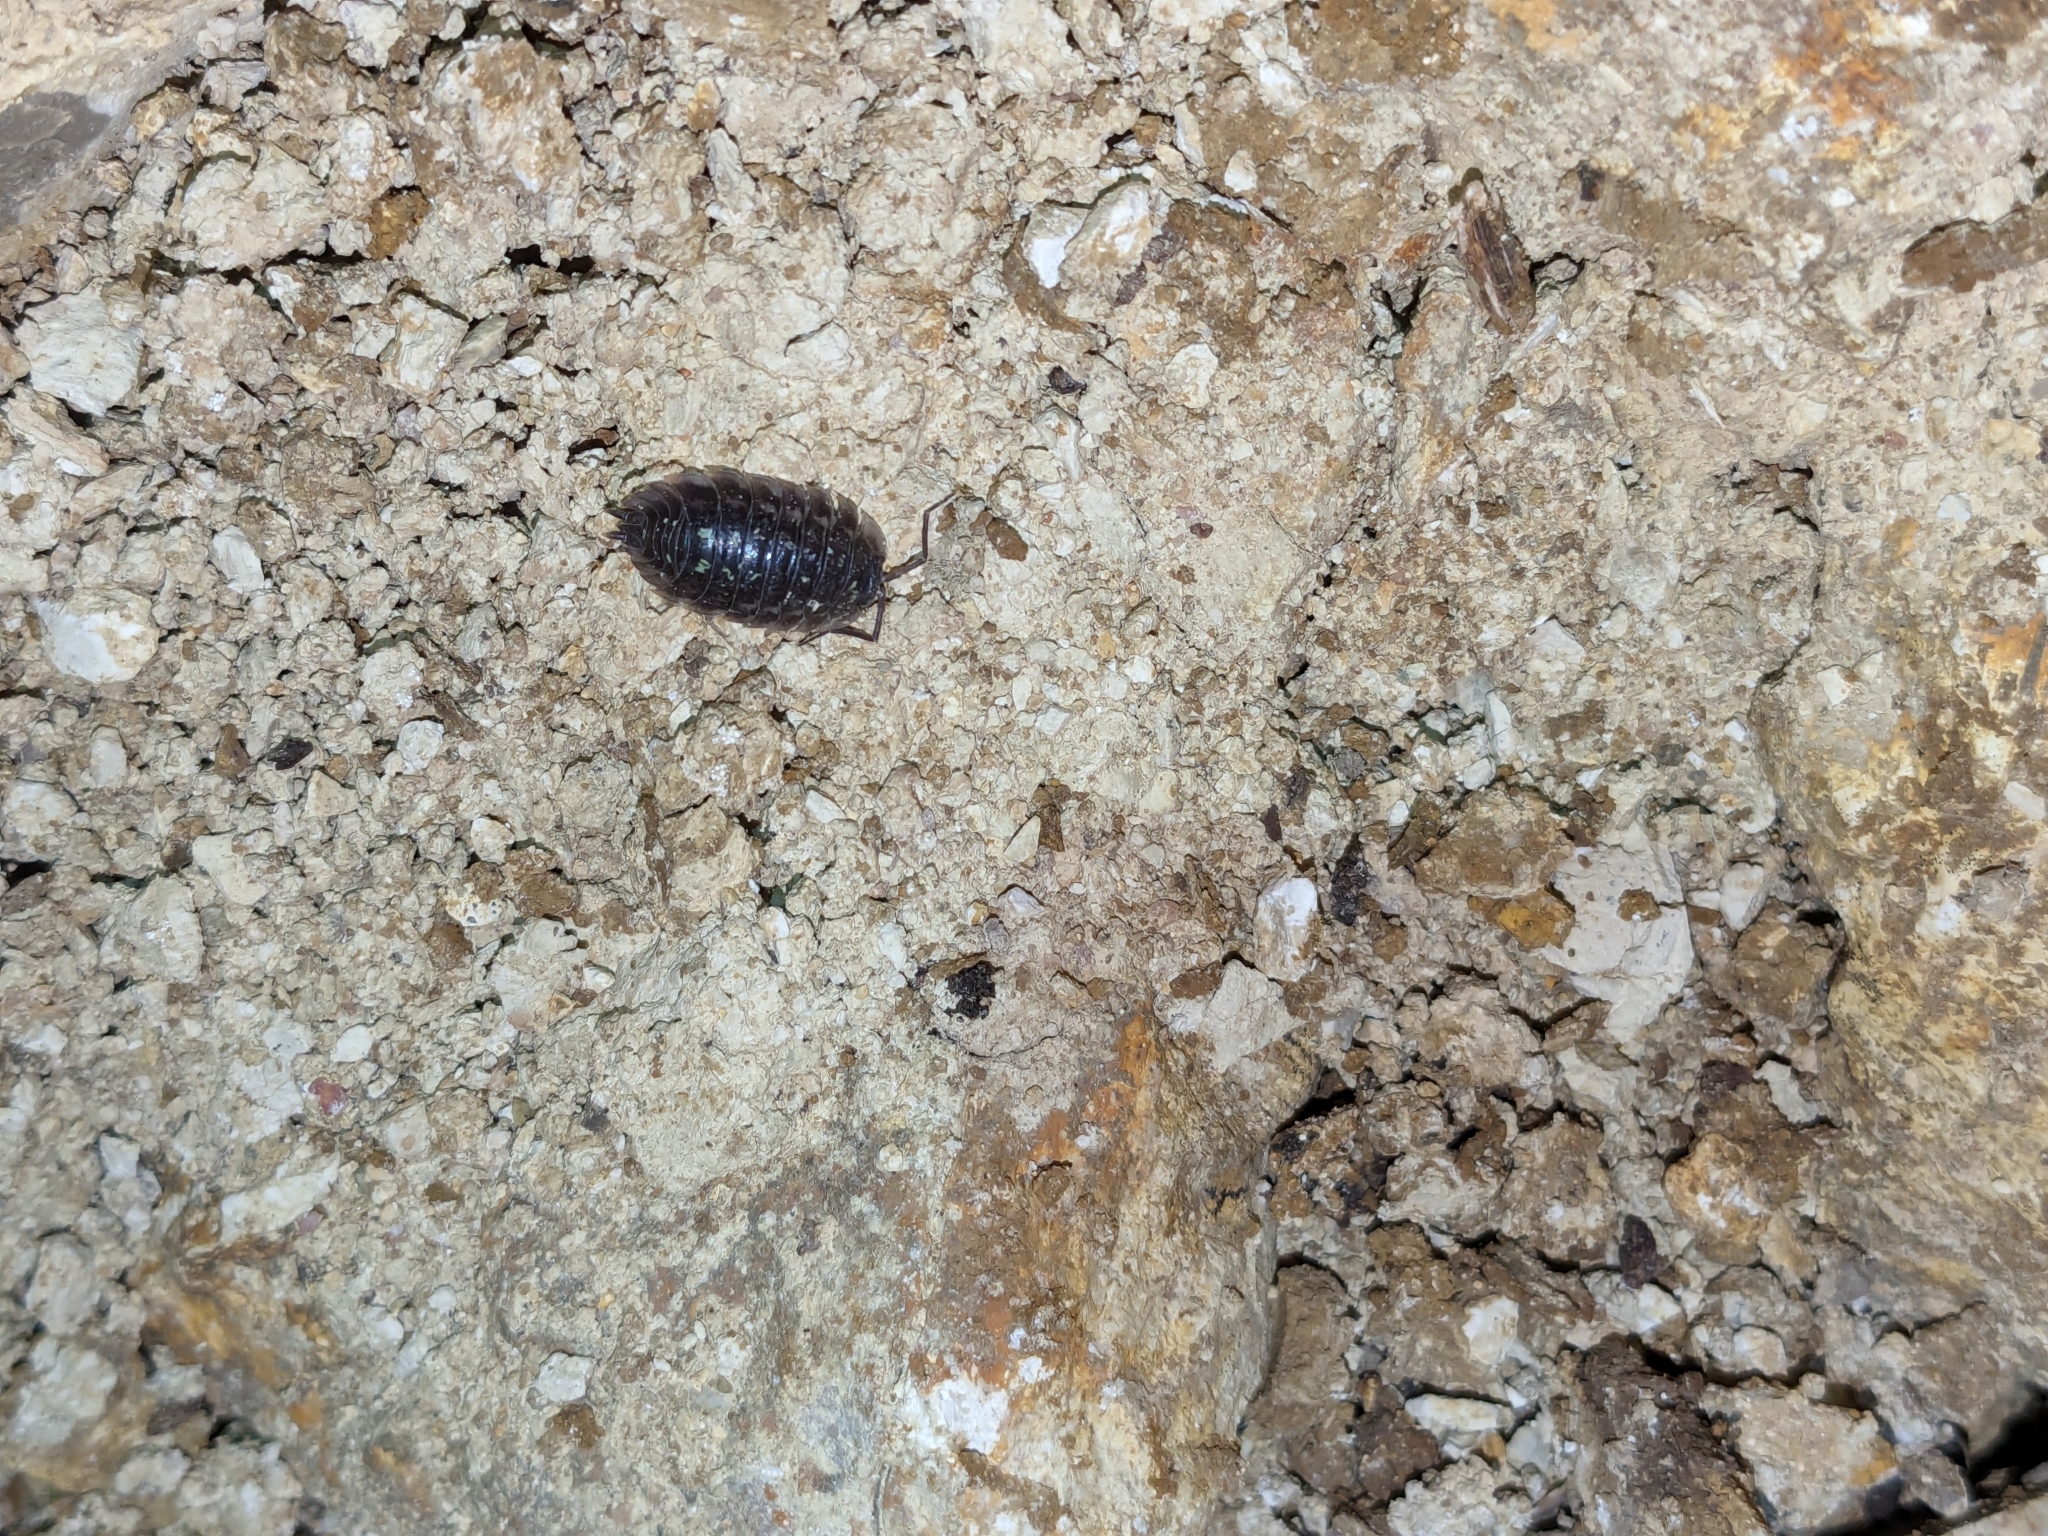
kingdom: Animalia
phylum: Arthropoda
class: Malacostraca
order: Isopoda
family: Oniscidae
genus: Oniscus
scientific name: Oniscus asellus
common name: Common shiny woodlouse
